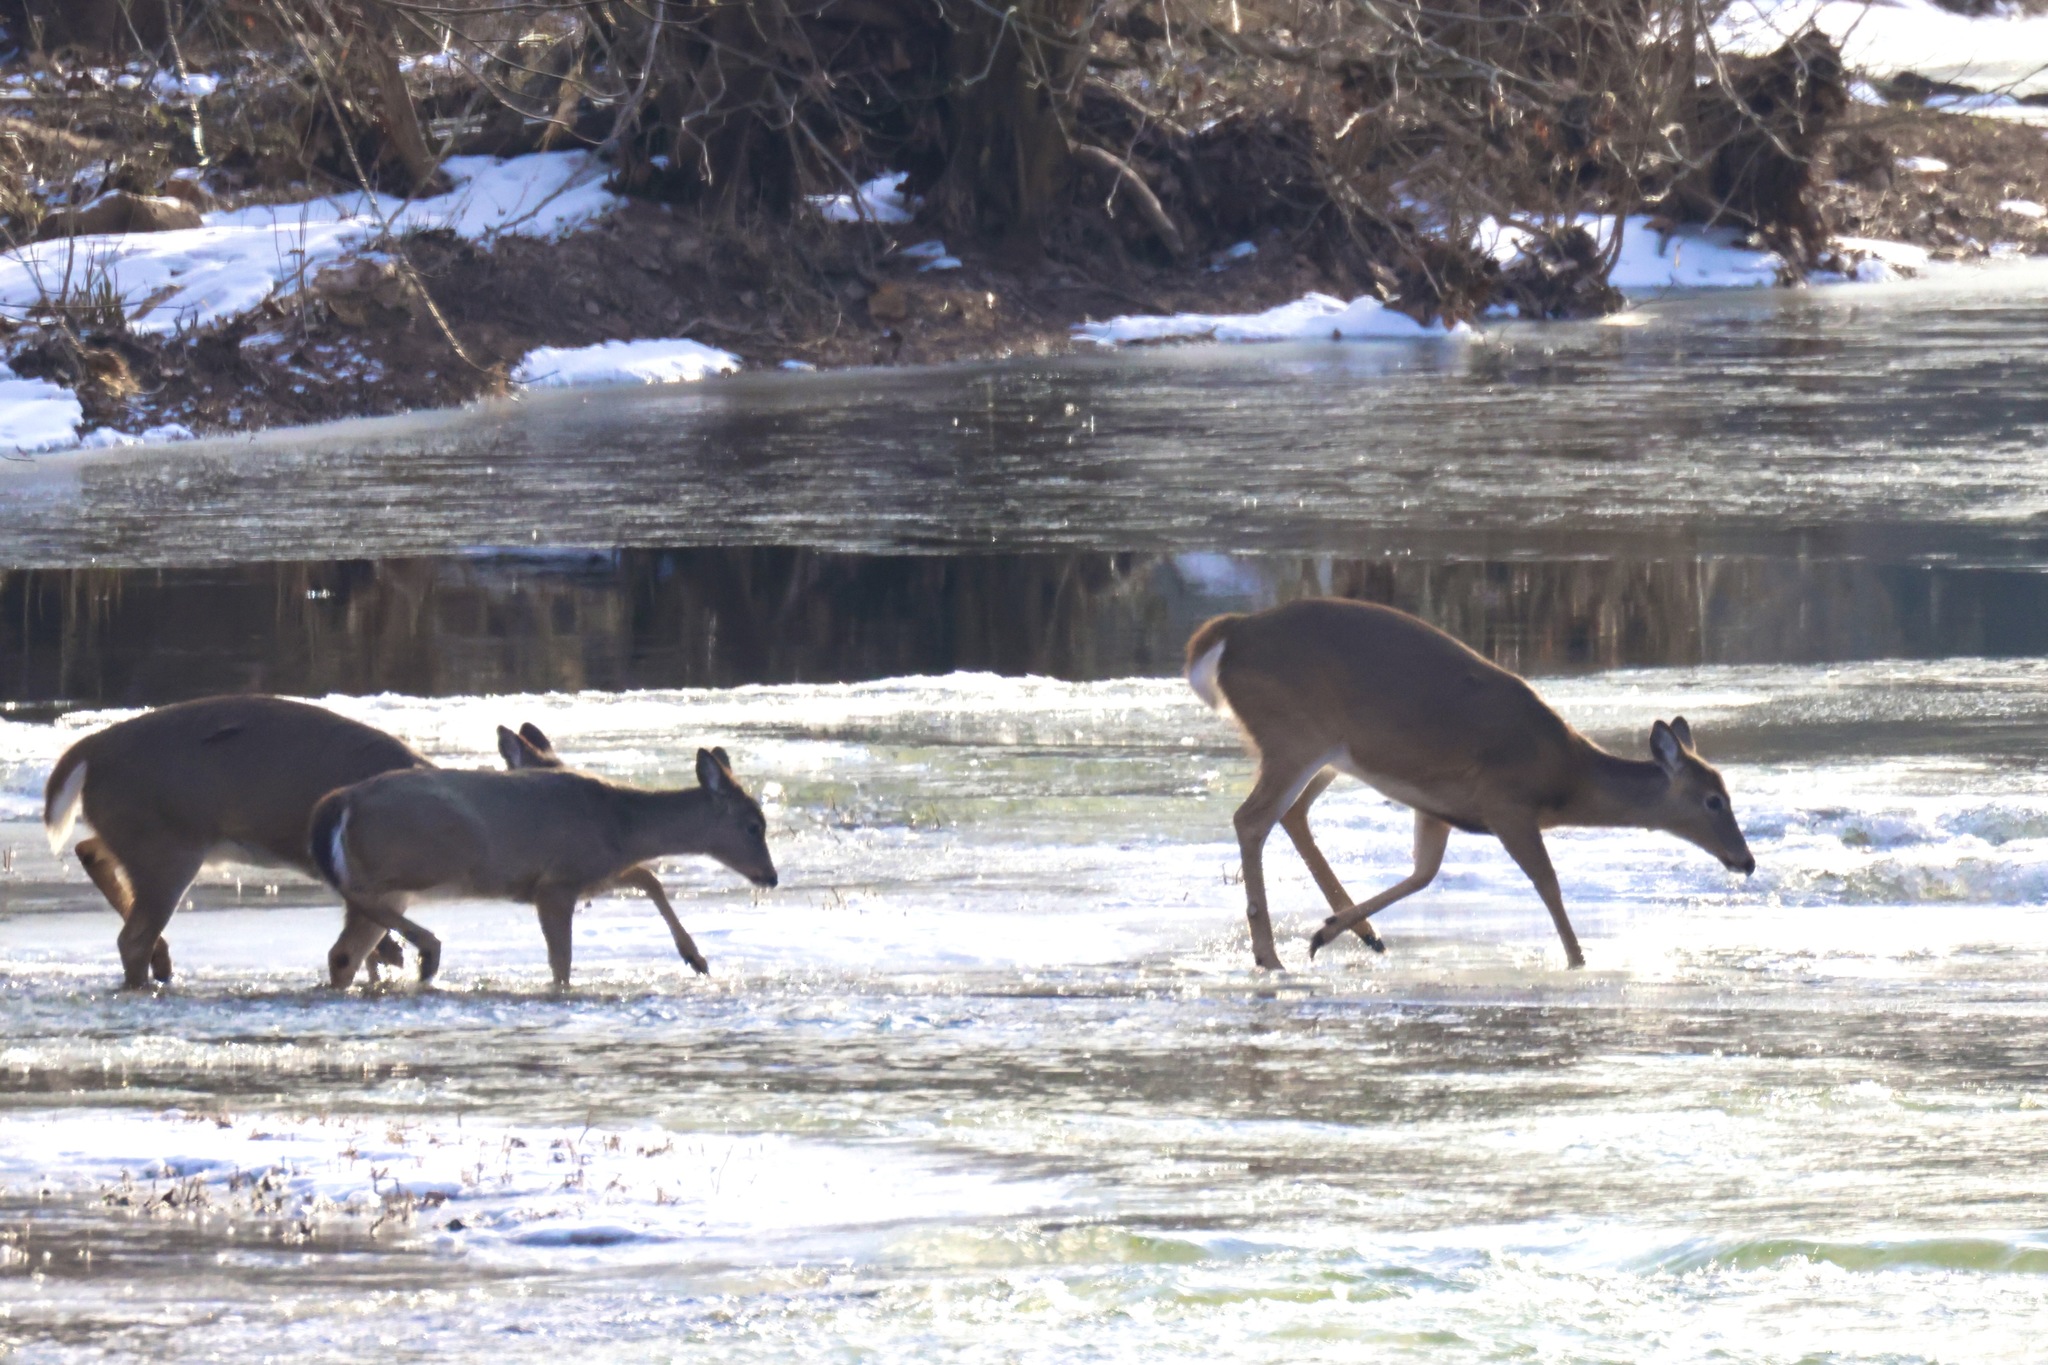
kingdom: Animalia
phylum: Chordata
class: Mammalia
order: Artiodactyla
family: Cervidae
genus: Odocoileus
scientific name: Odocoileus virginianus
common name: White-tailed deer
